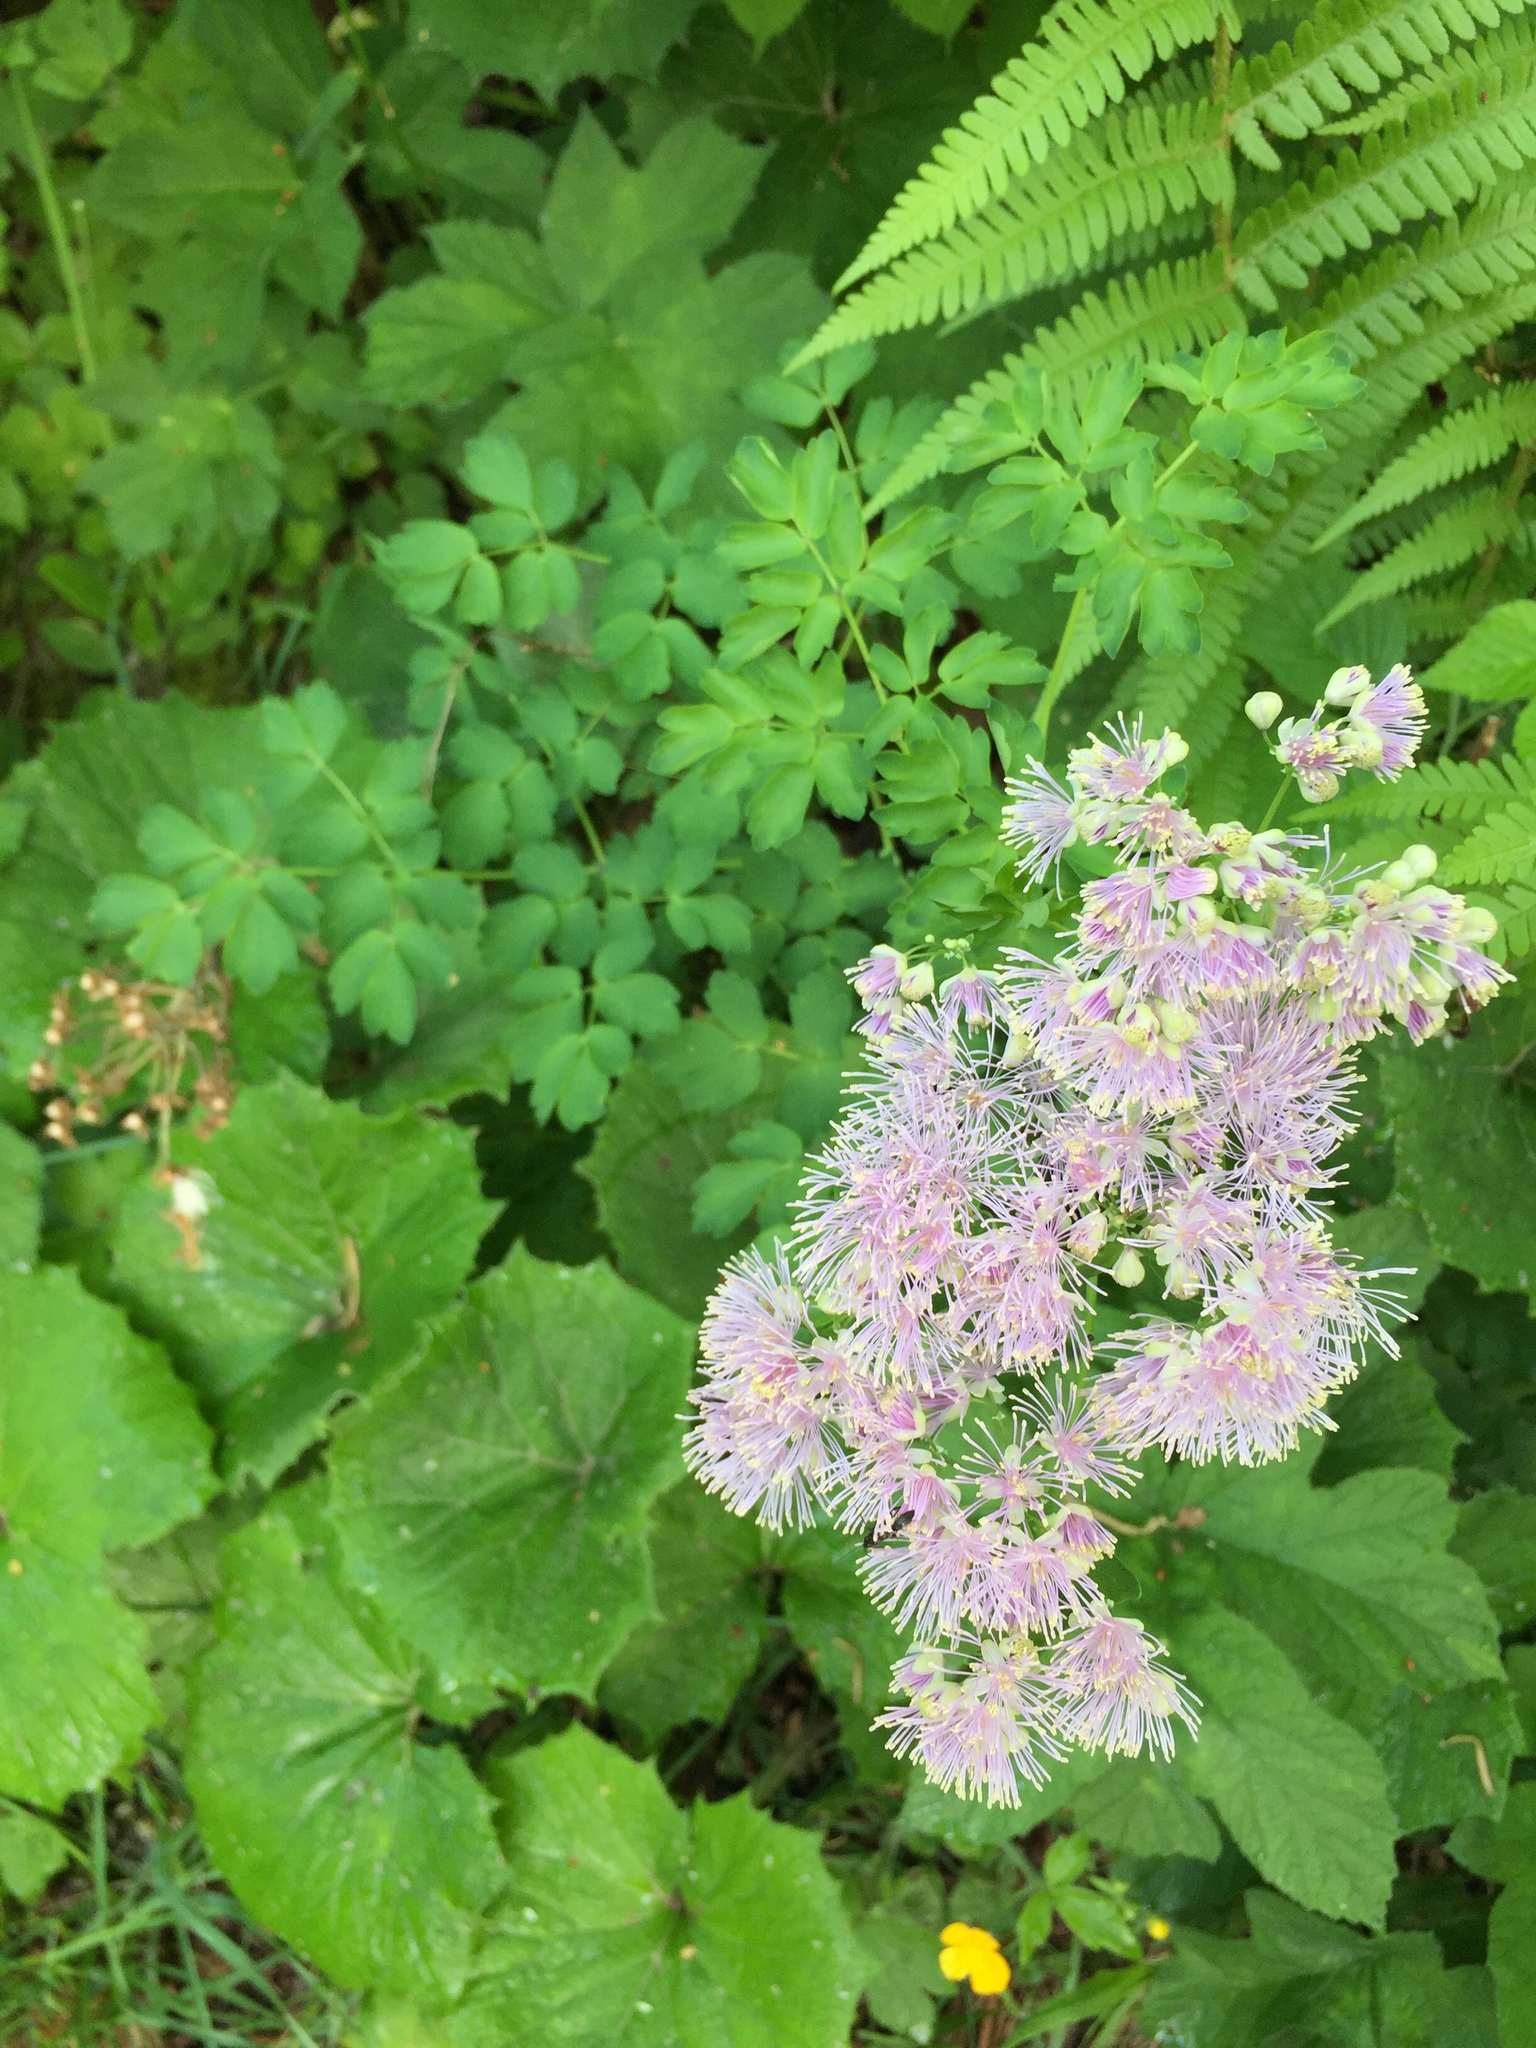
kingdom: Plantae
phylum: Tracheophyta
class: Magnoliopsida
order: Ranunculales
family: Ranunculaceae
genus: Thalictrum
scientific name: Thalictrum aquilegiifolium
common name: French meadow-rue
